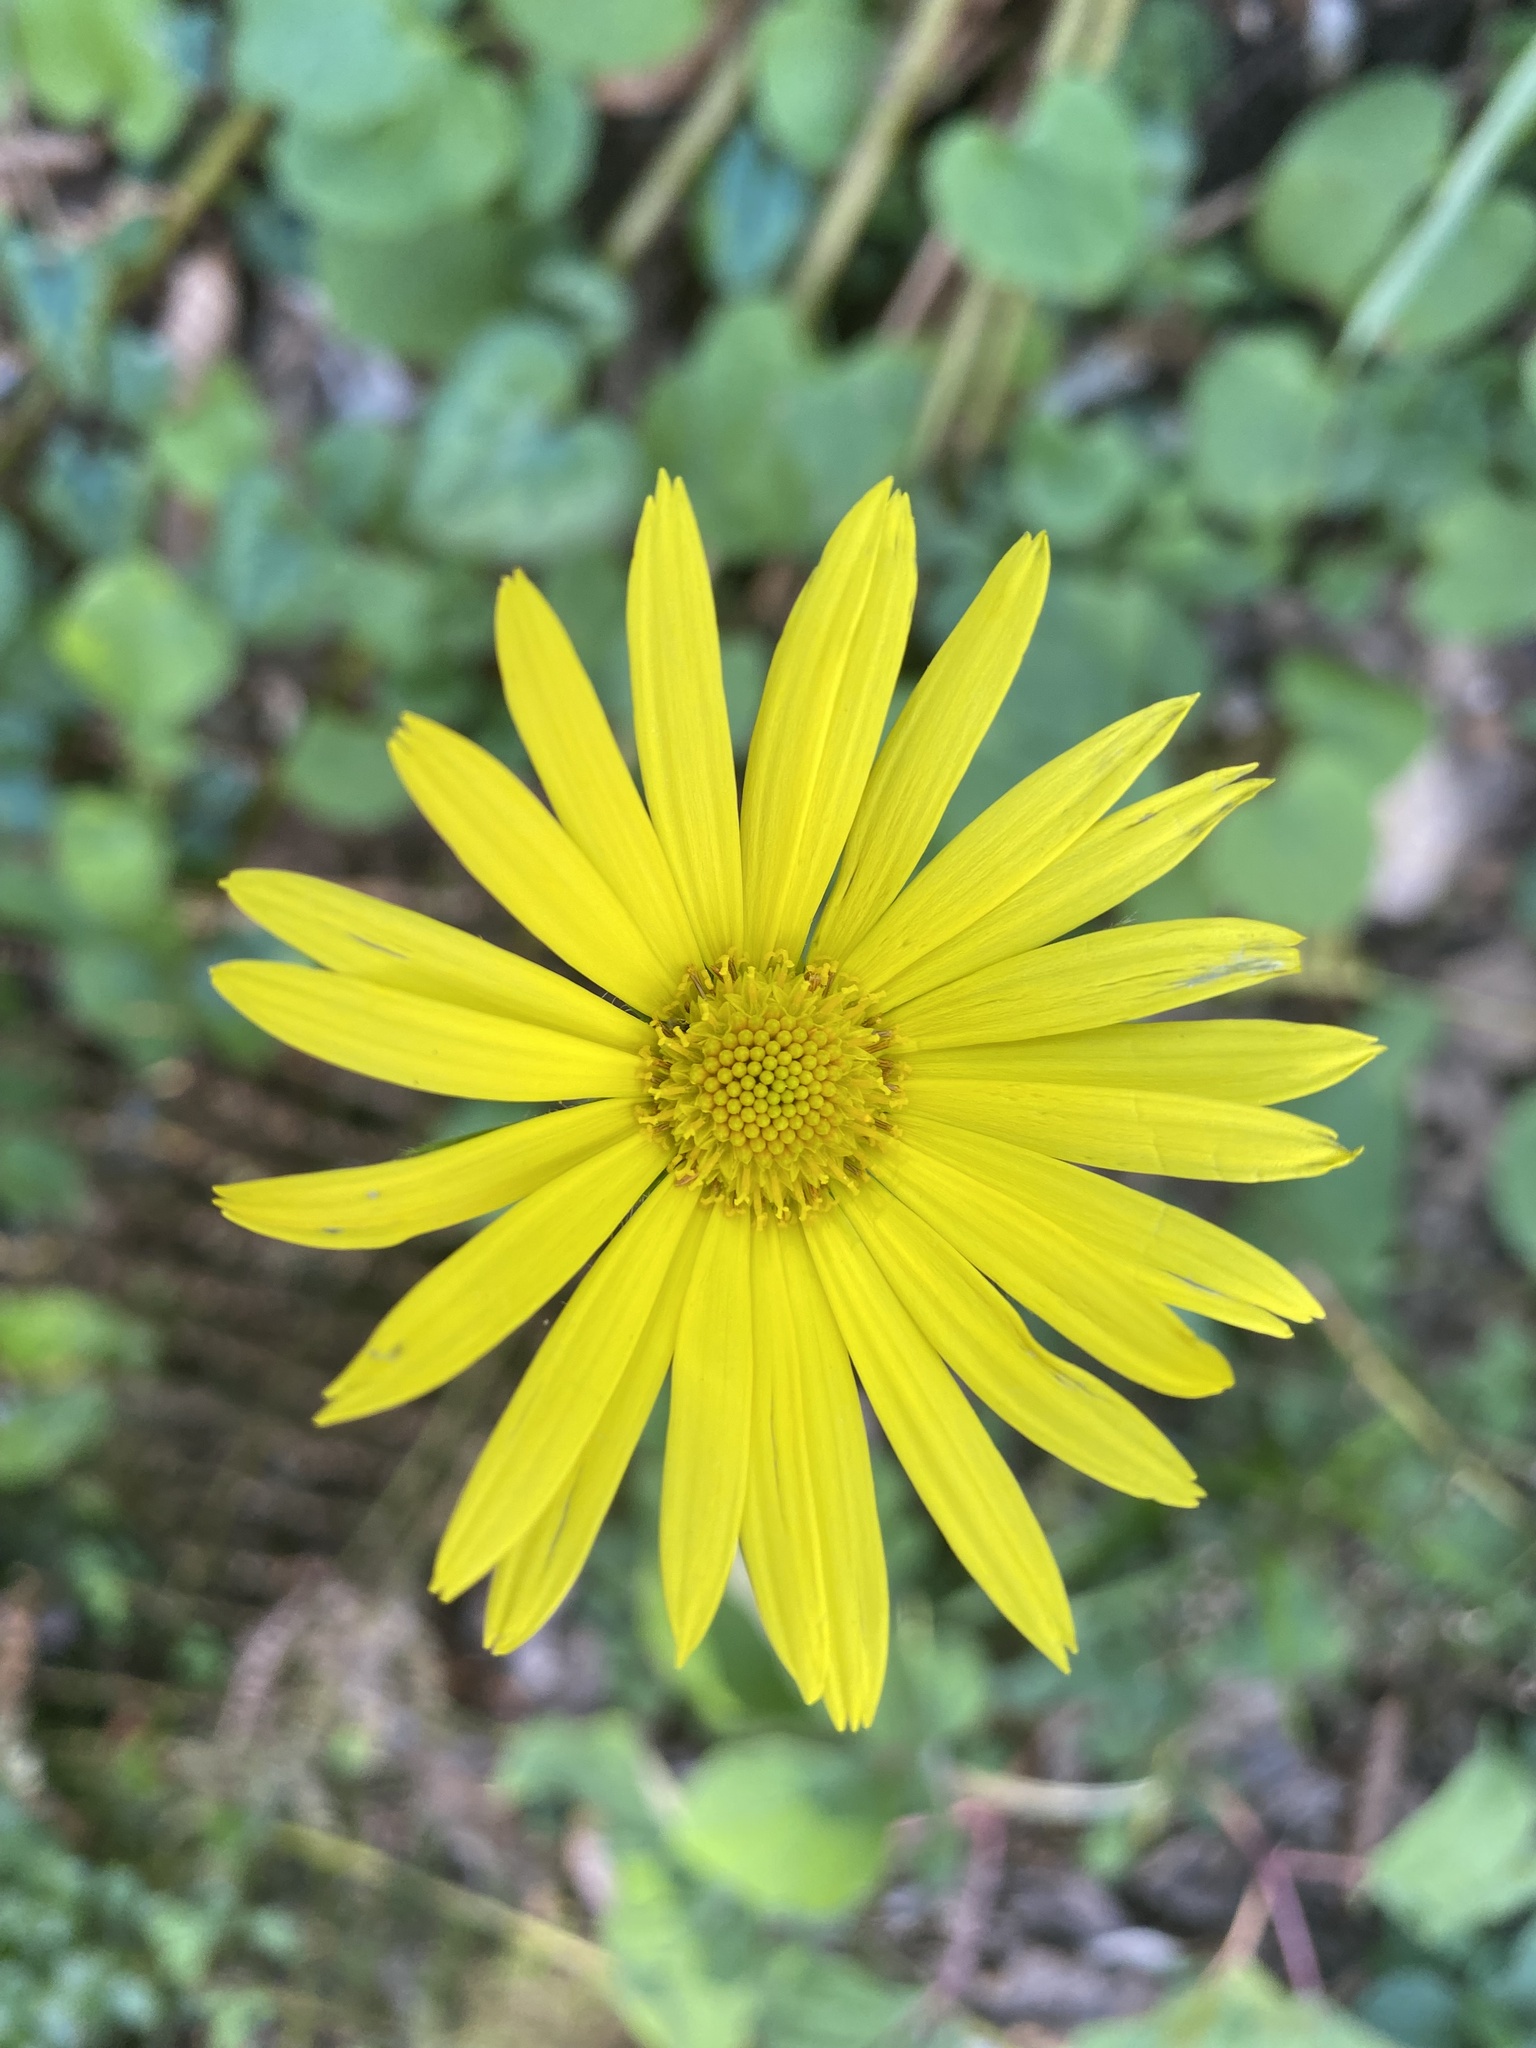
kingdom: Plantae
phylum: Tracheophyta
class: Magnoliopsida
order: Asterales
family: Asteraceae
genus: Doronicum
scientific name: Doronicum
